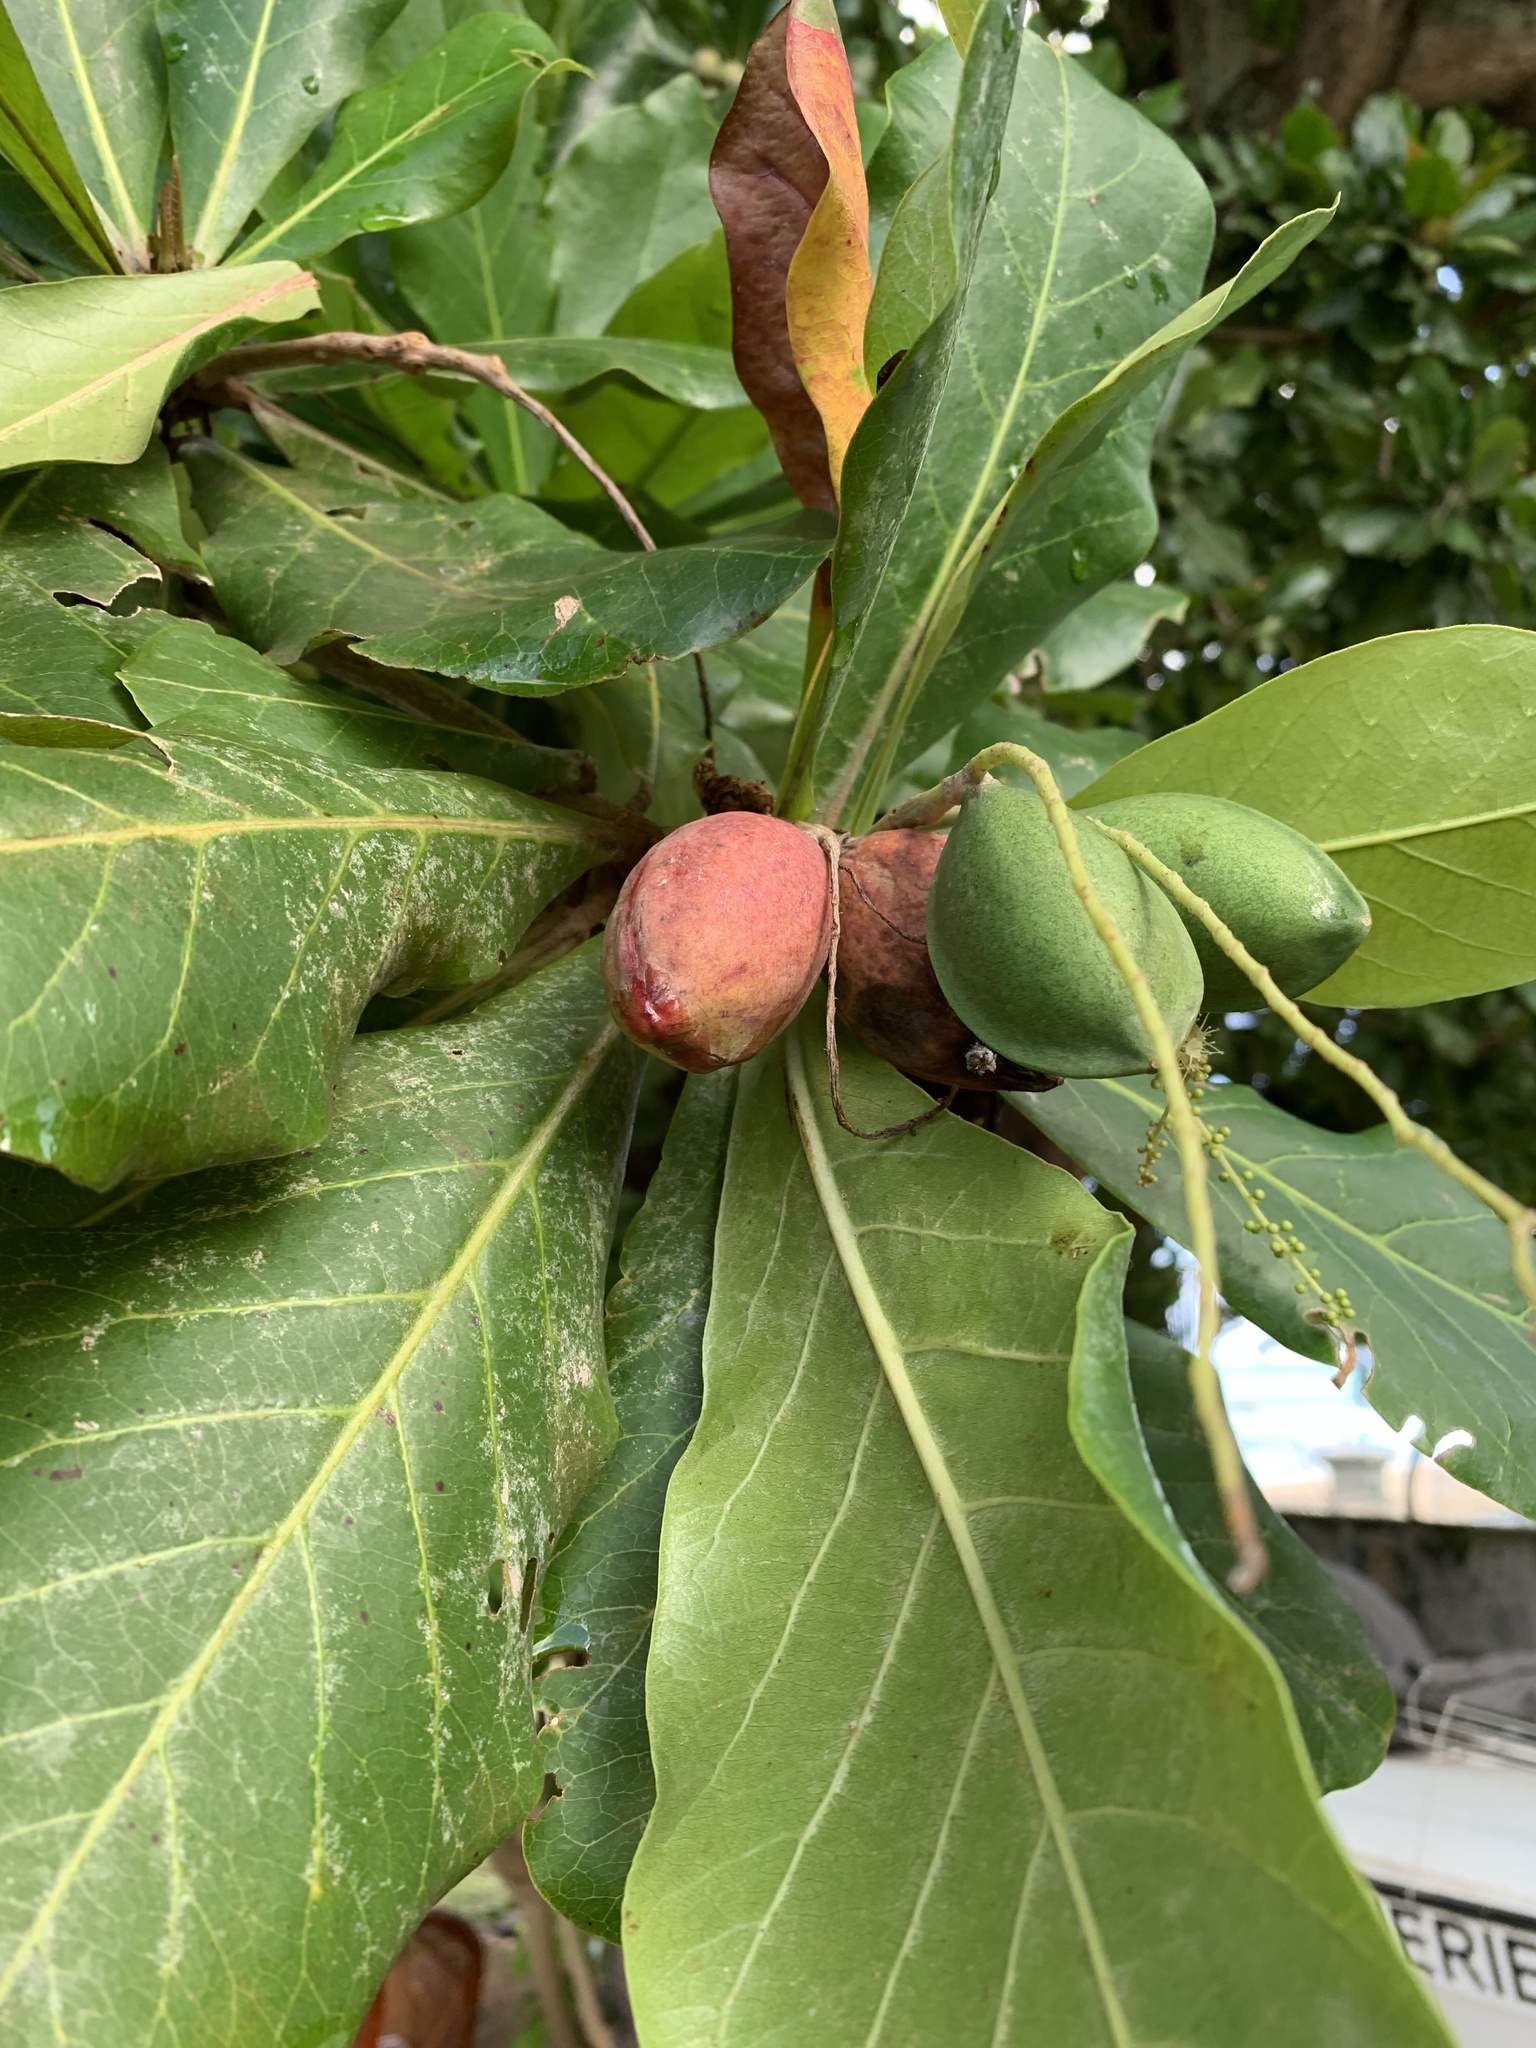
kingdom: Plantae
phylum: Tracheophyta
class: Magnoliopsida
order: Myrtales
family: Combretaceae
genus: Terminalia
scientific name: Terminalia catappa
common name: Tropical almond
